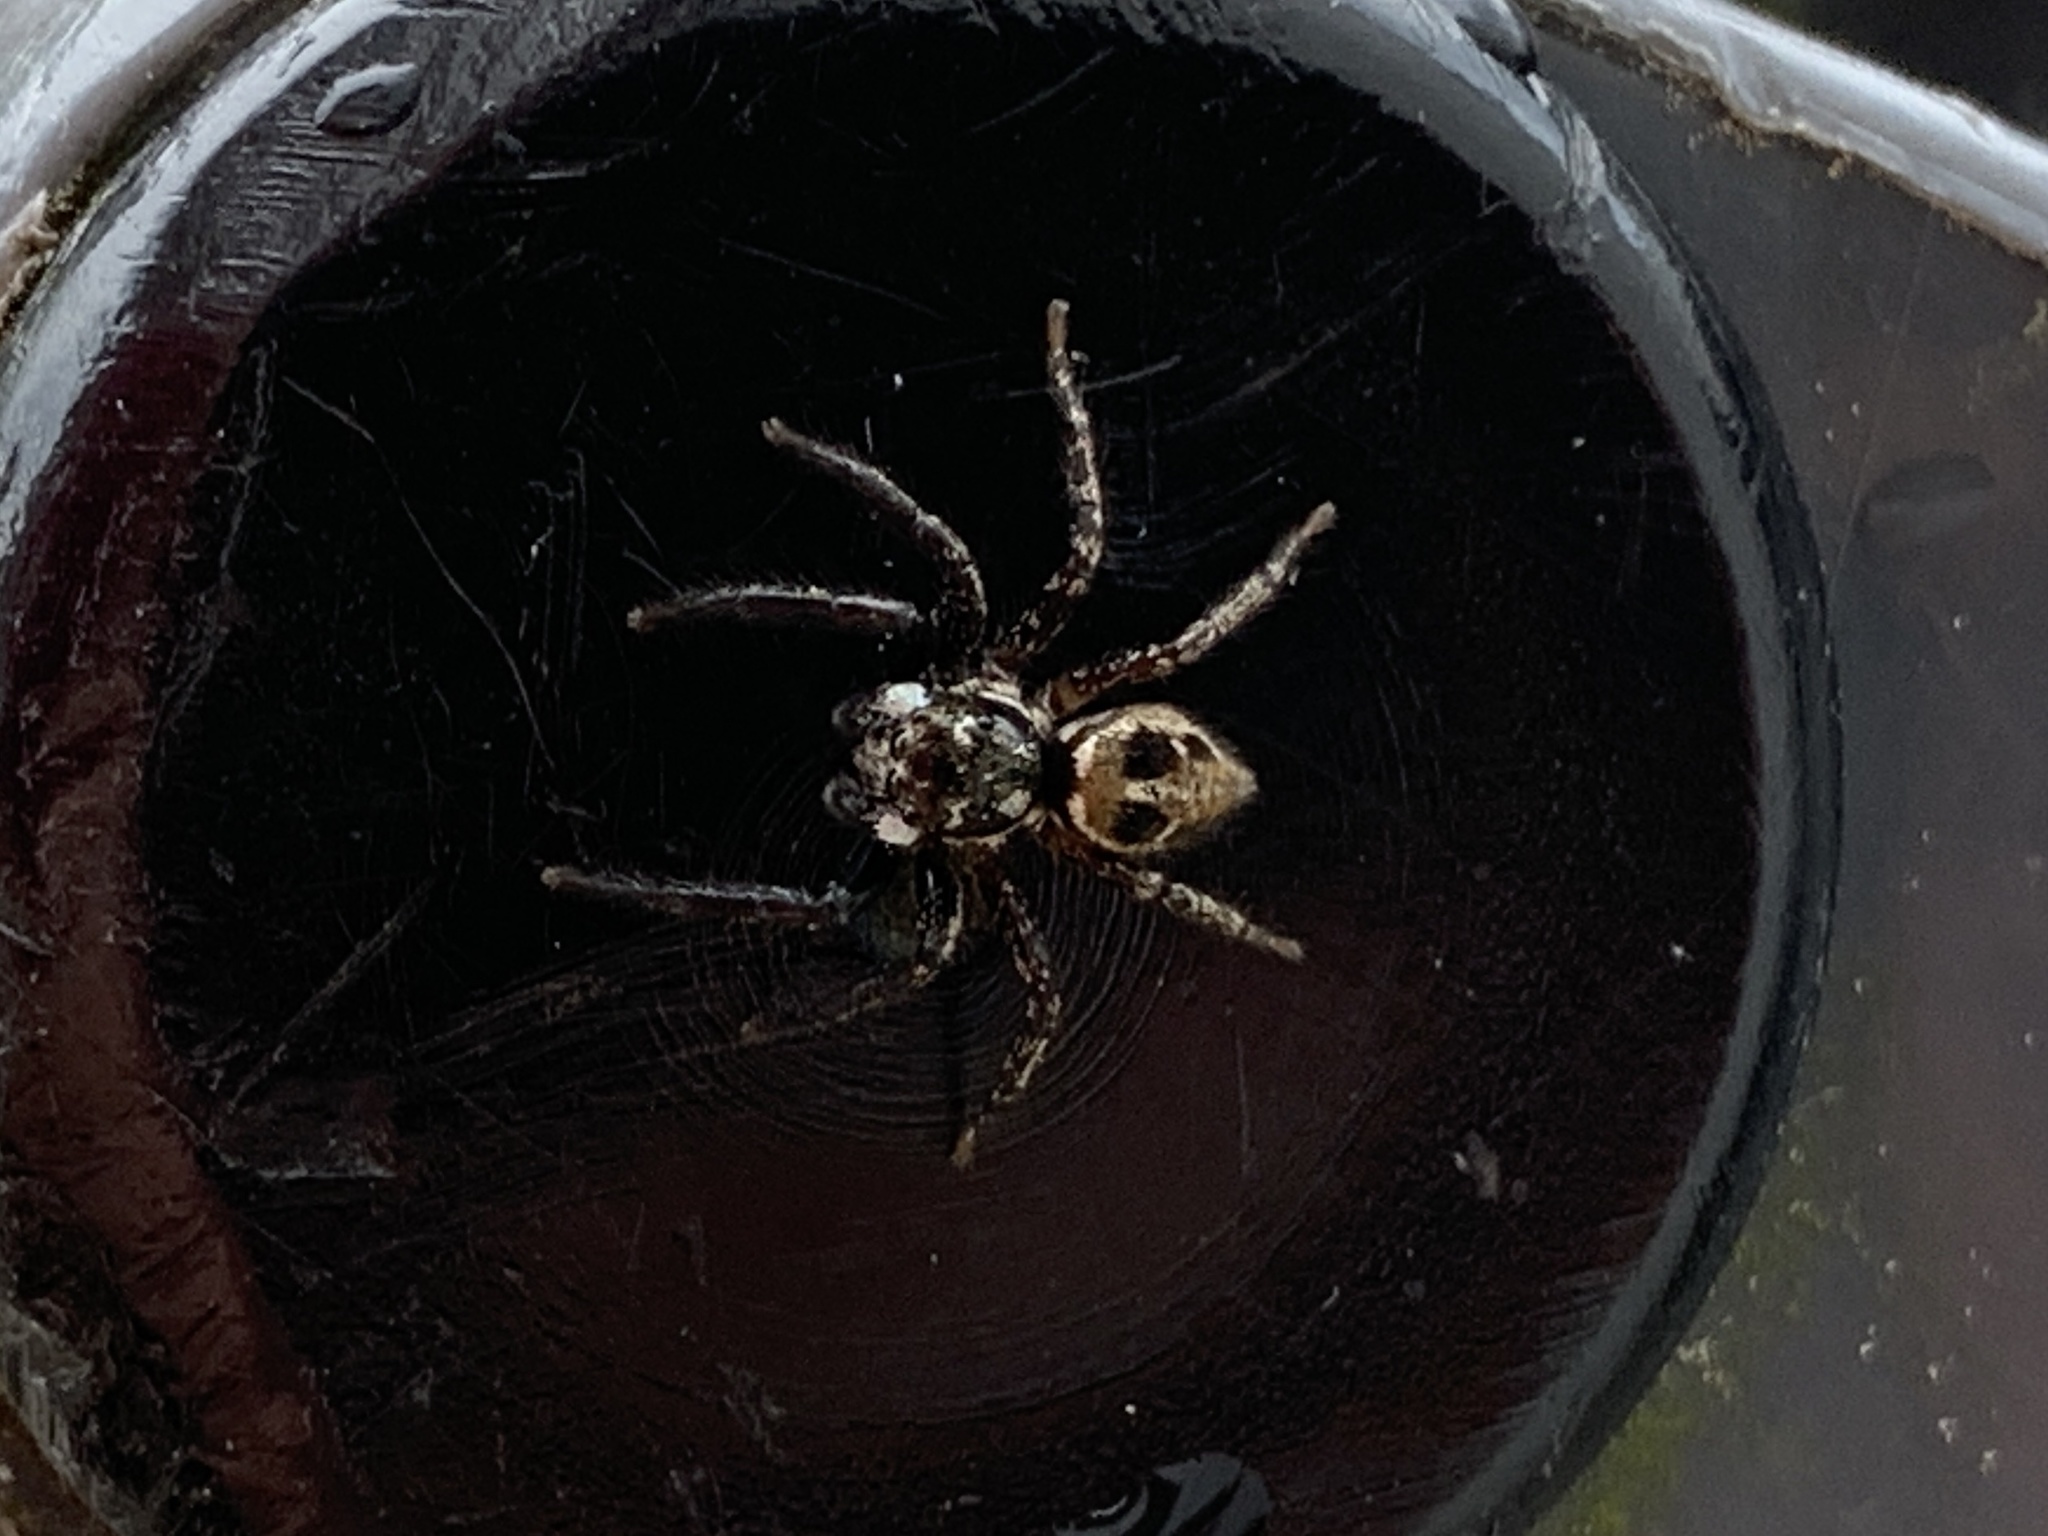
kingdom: Animalia
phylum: Arthropoda
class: Arachnida
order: Araneae
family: Salticidae
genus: Anasaitis
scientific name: Anasaitis canosa
